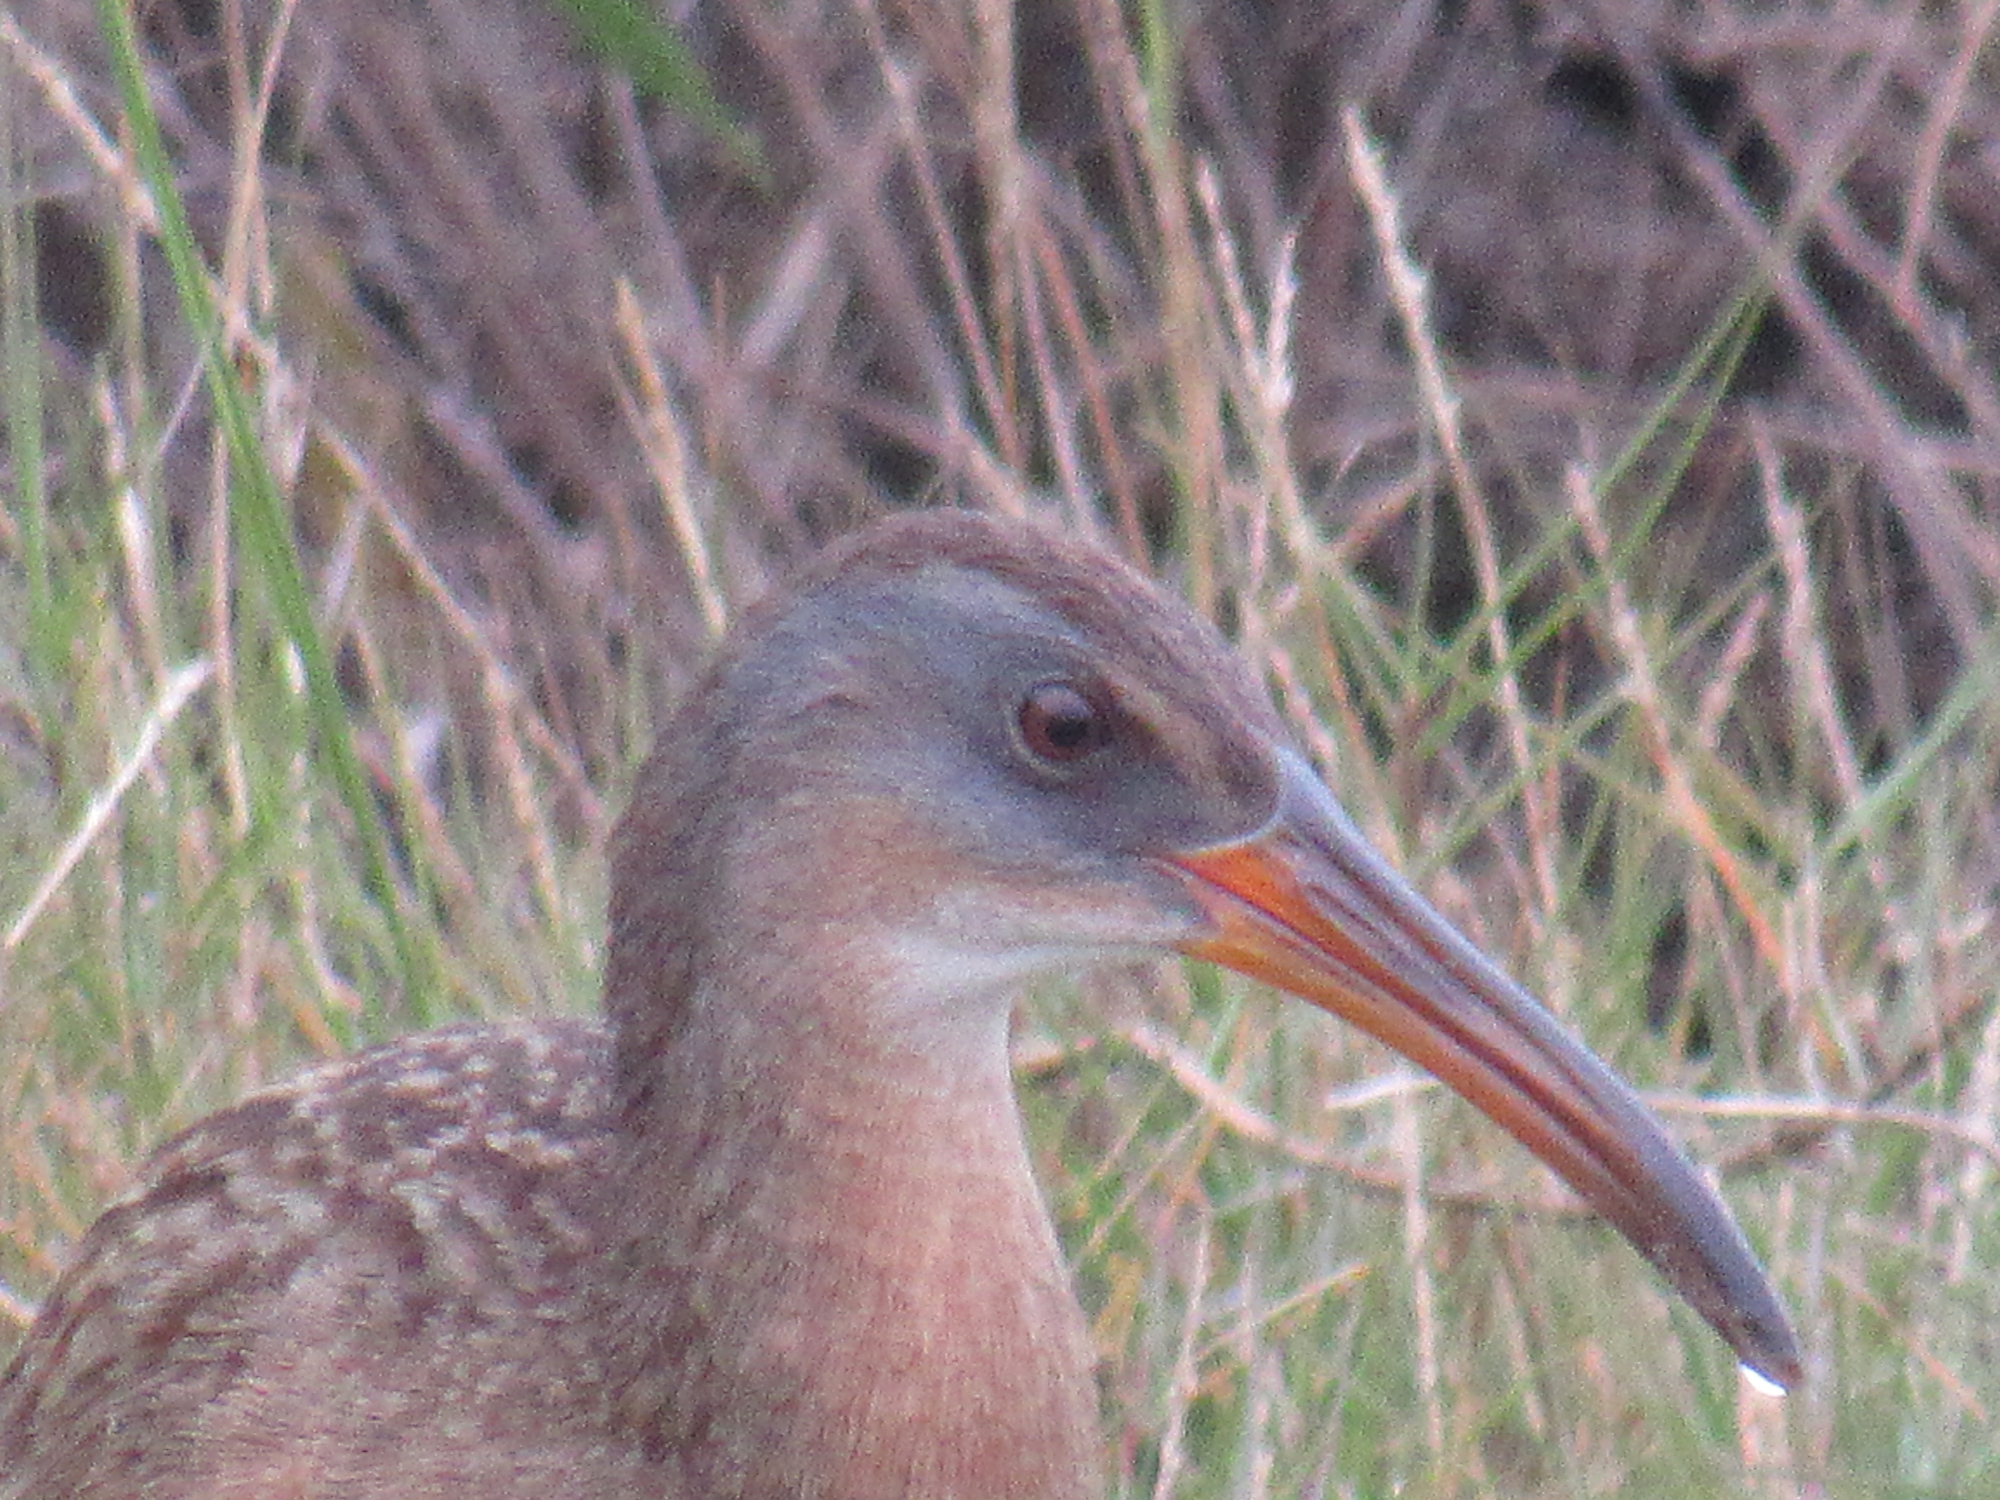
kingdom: Animalia
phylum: Chordata
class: Aves
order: Gruiformes
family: Rallidae
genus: Rallus
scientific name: Rallus crepitans
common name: Clapper rail
